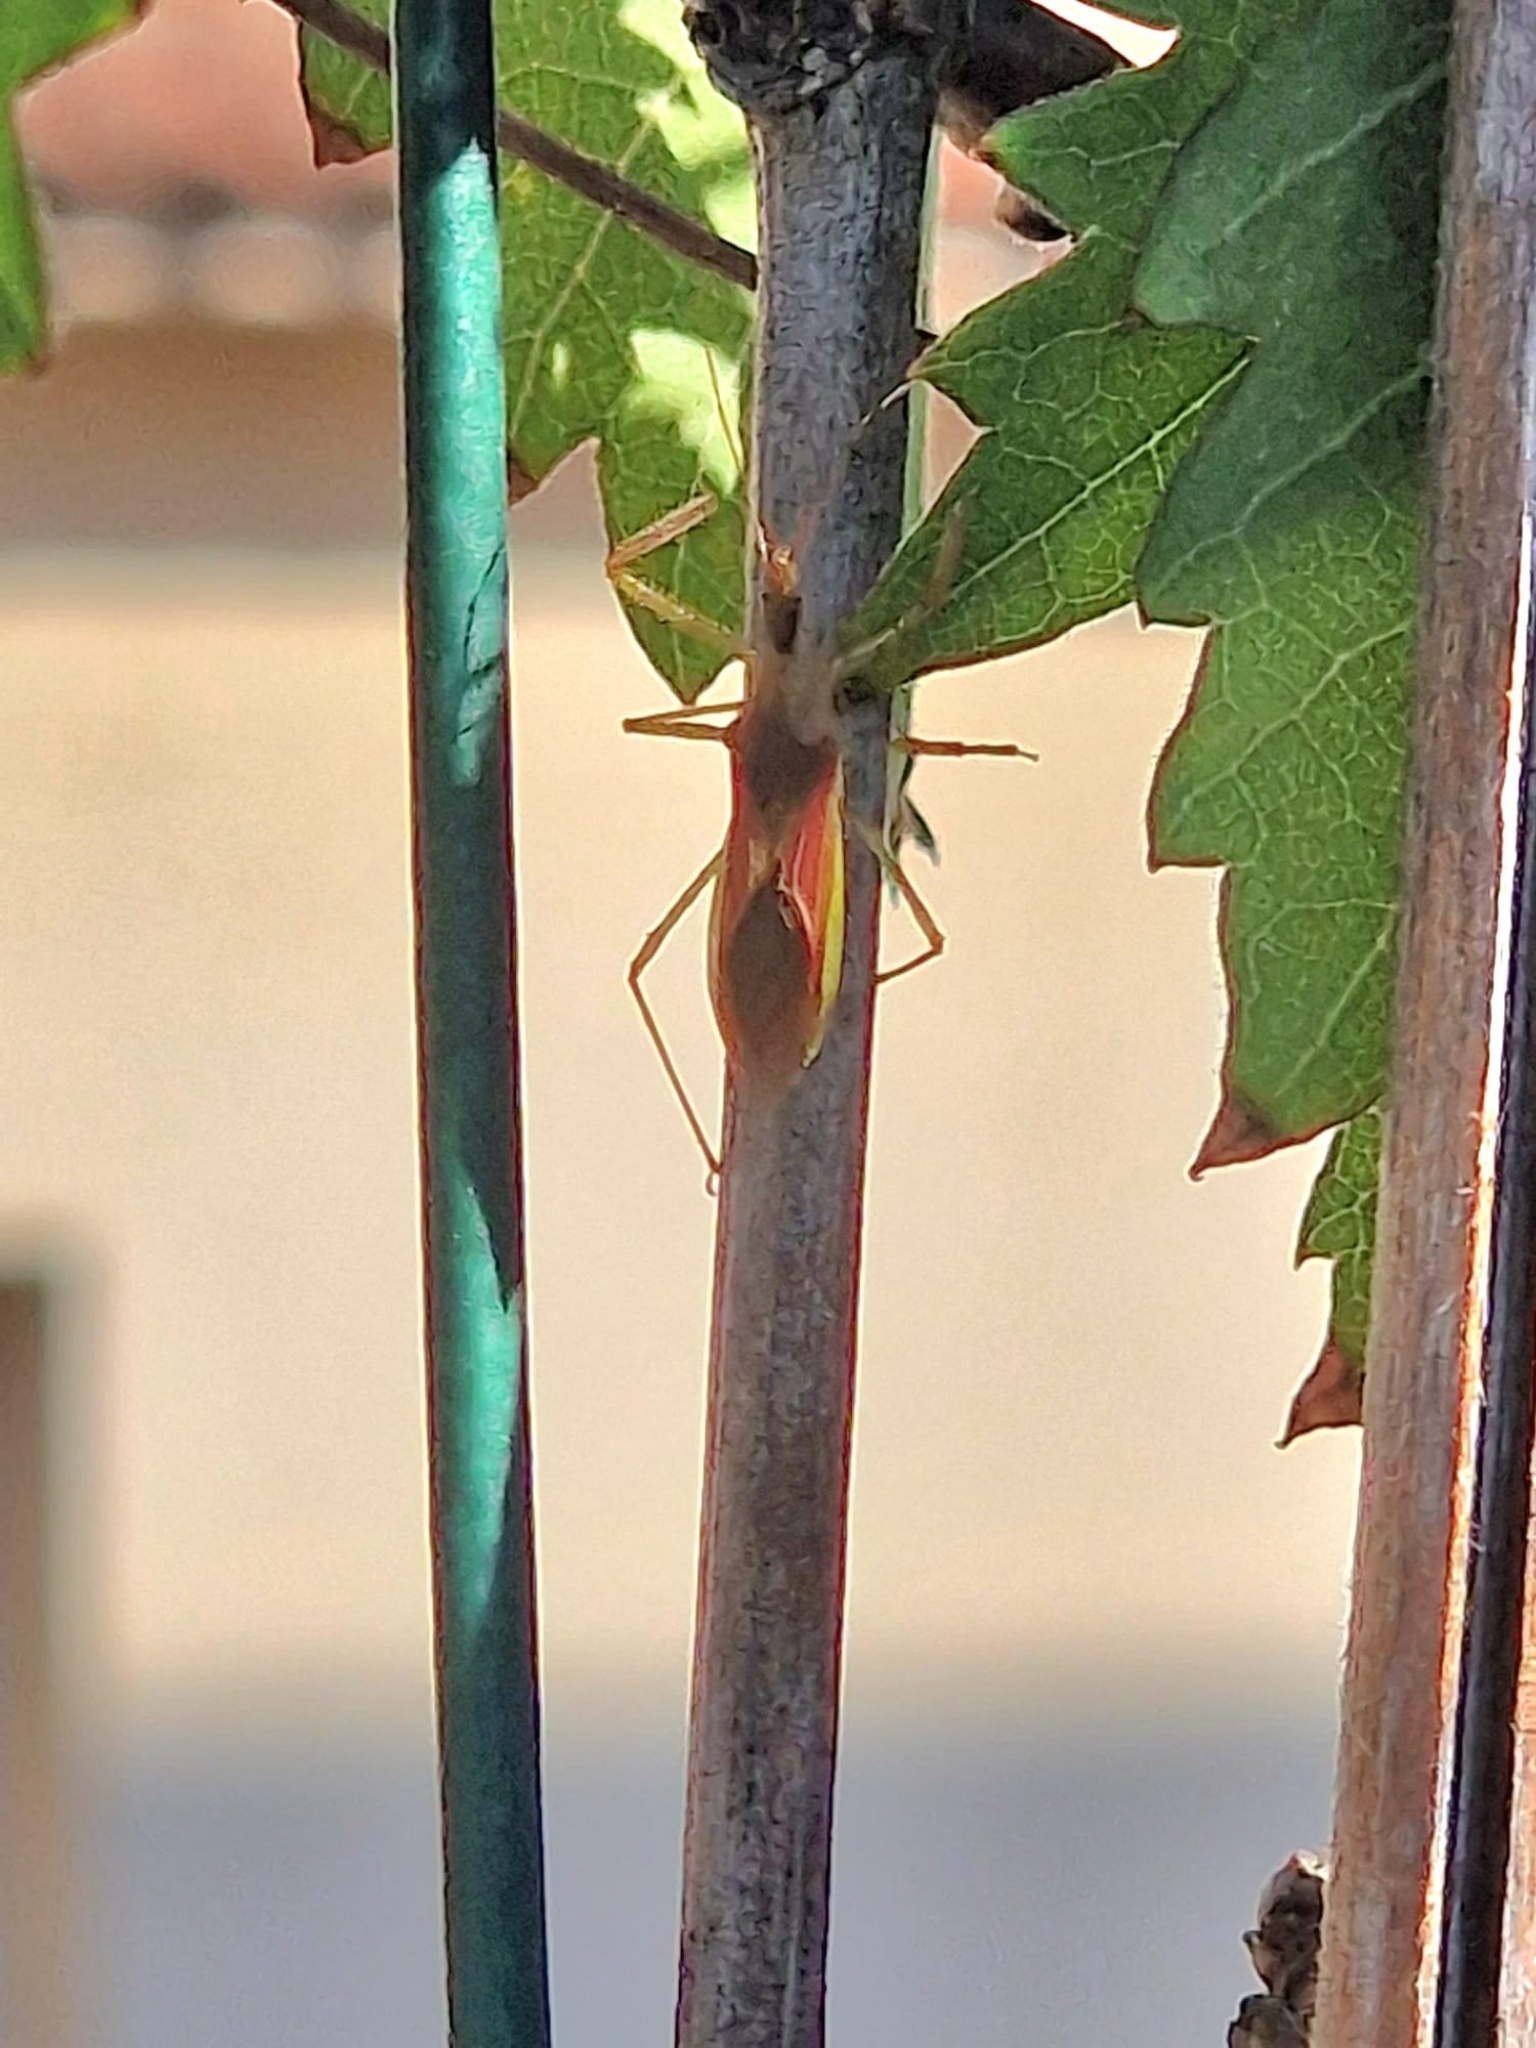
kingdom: Animalia
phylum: Arthropoda
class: Insecta
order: Hemiptera
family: Reduviidae
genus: Zelus
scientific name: Zelus renardii
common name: Assassin bug
